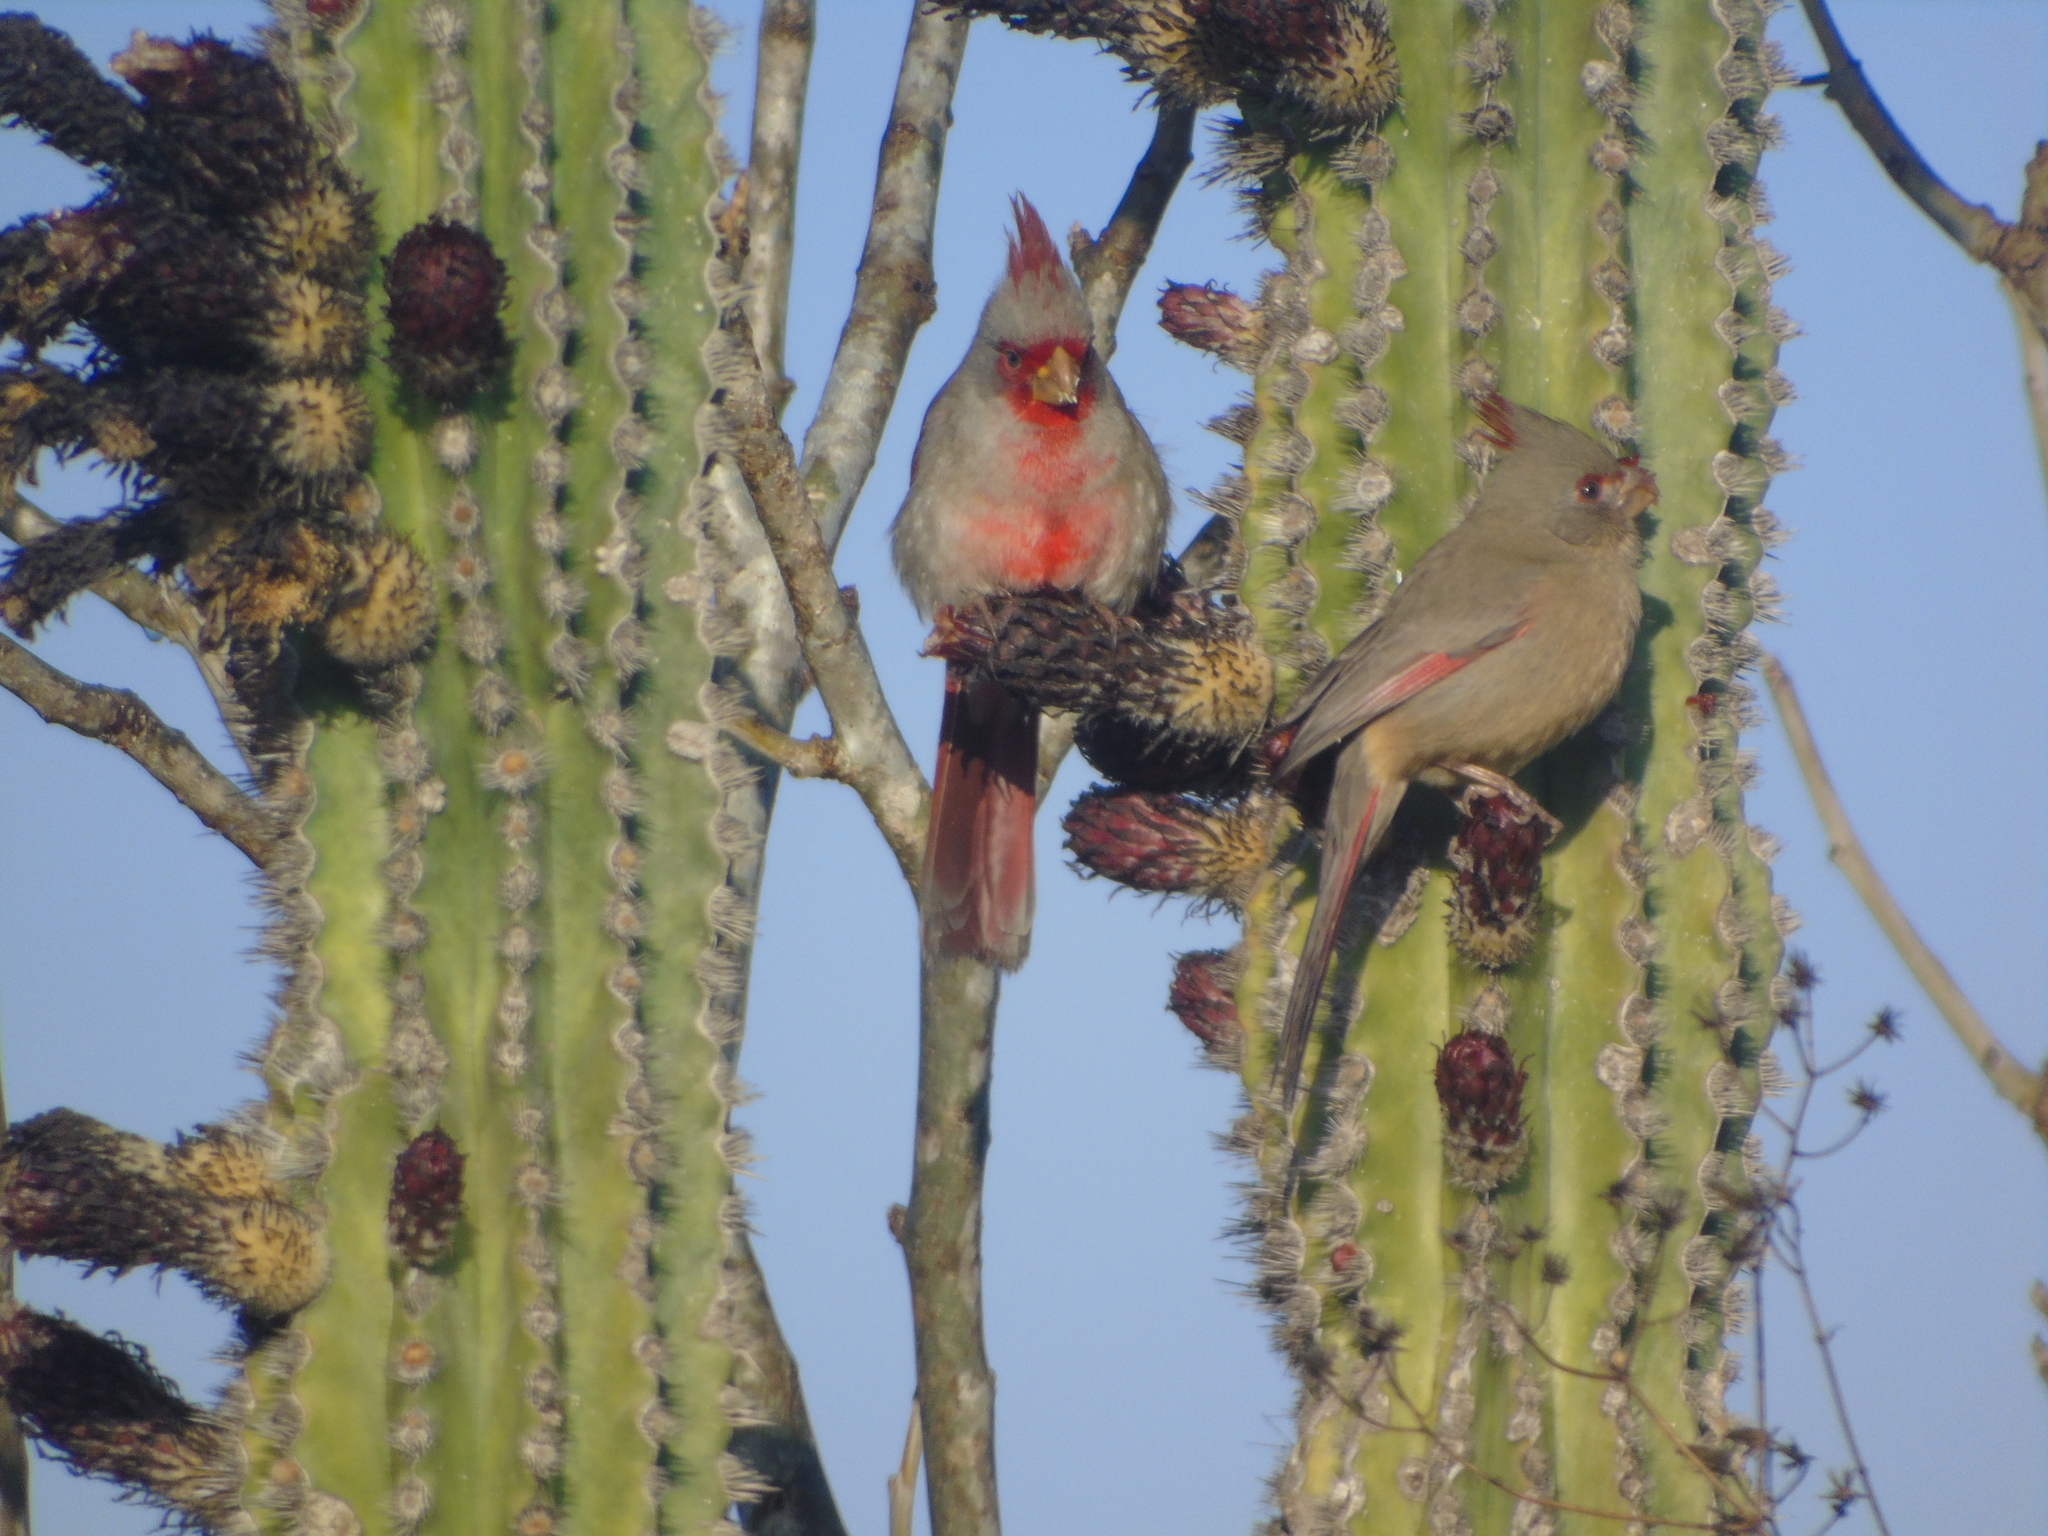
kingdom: Animalia
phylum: Chordata
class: Aves
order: Passeriformes
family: Cardinalidae
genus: Cardinalis
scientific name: Cardinalis sinuatus
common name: Pyrrhuloxia
